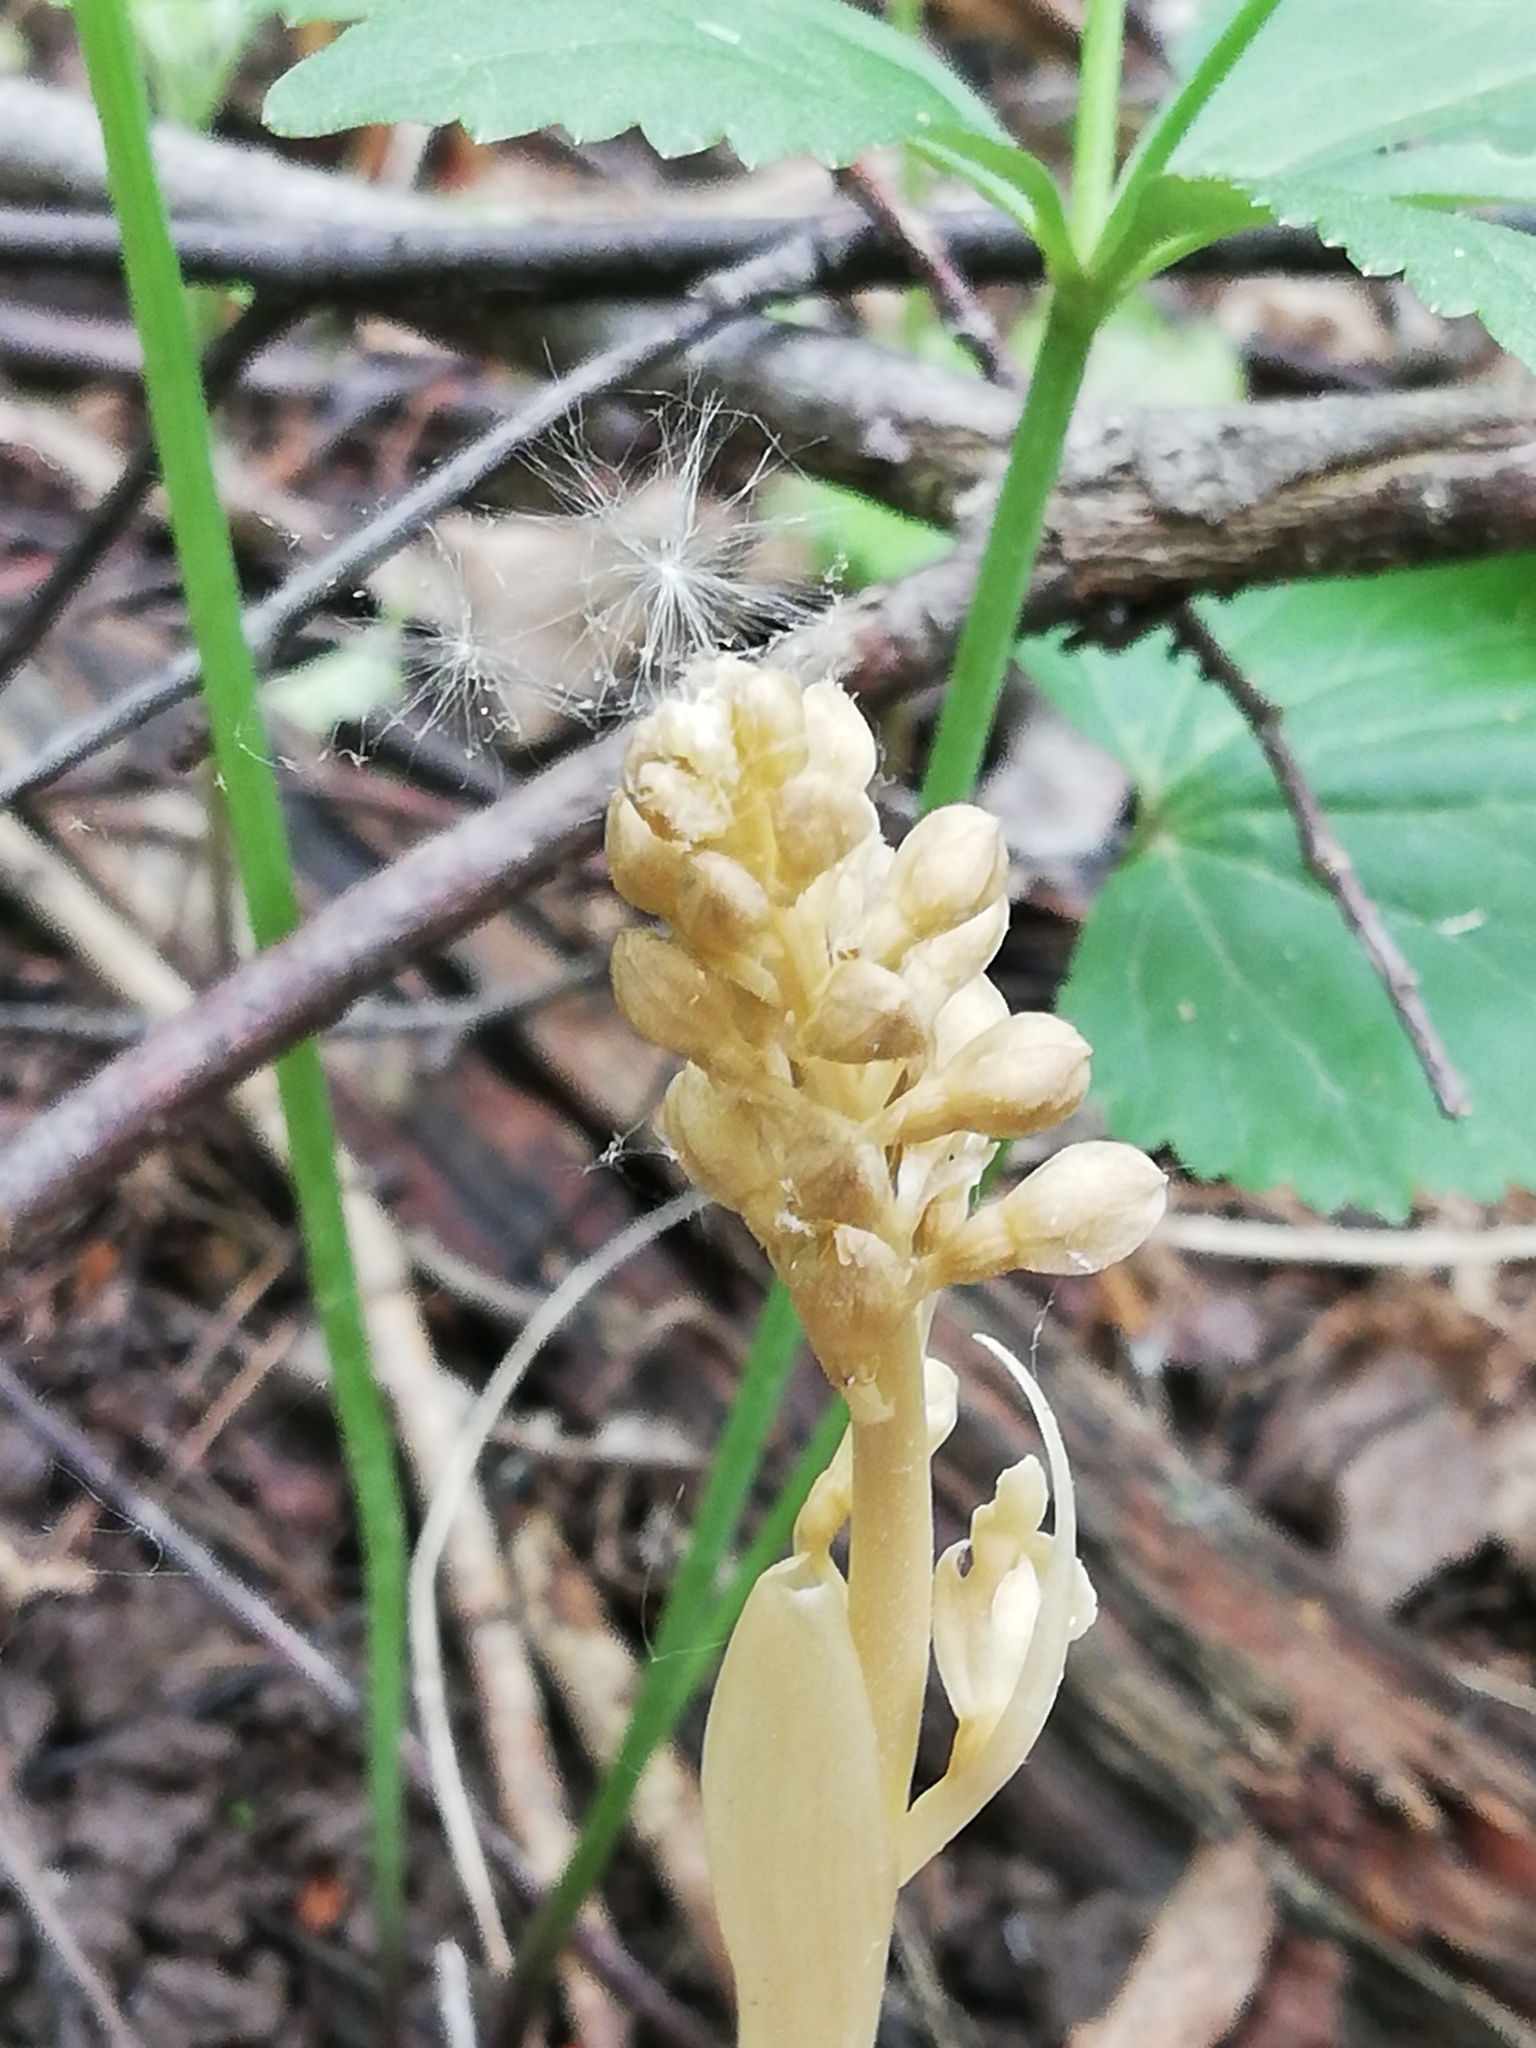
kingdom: Plantae
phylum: Tracheophyta
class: Liliopsida
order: Asparagales
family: Orchidaceae
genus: Neottia
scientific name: Neottia nidus-avis
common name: Bird's-nest orchid
